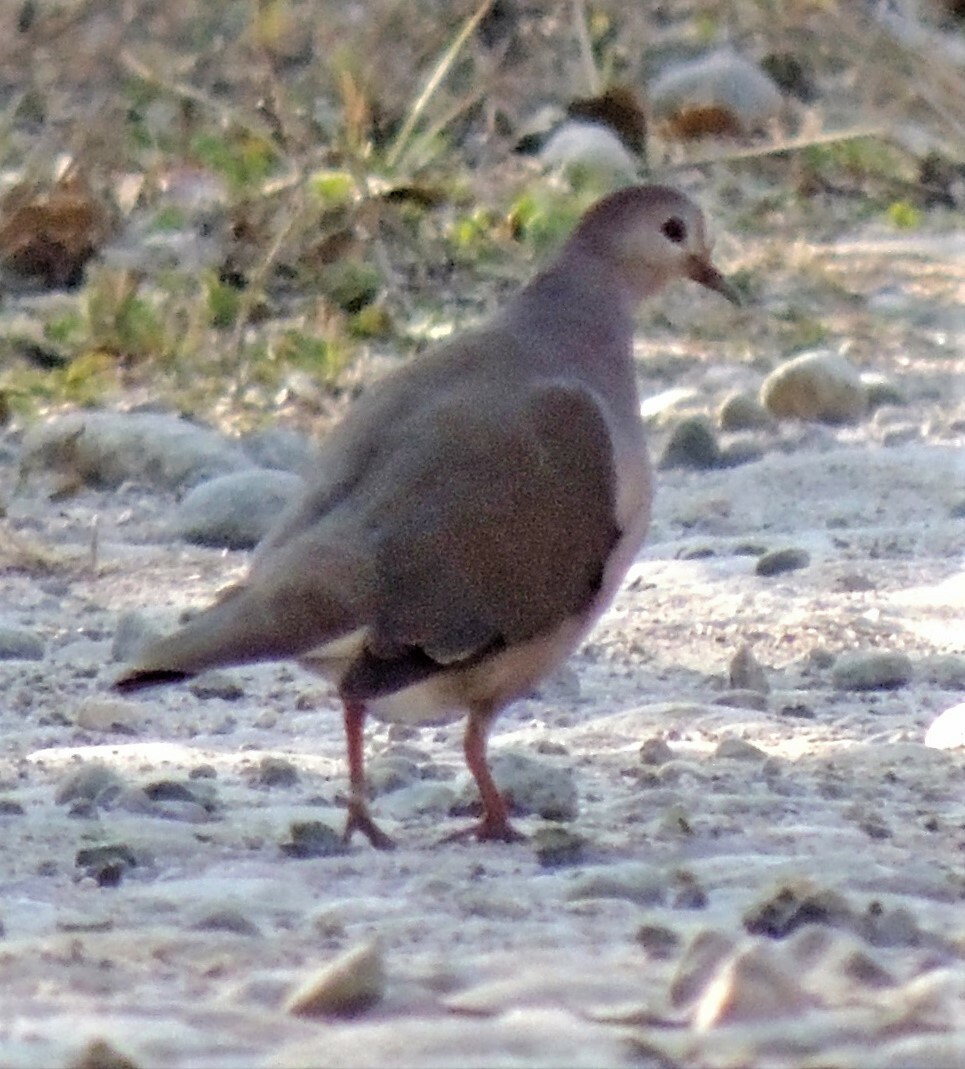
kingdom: Animalia
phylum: Chordata
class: Aves
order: Columbiformes
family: Columbidae
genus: Leptotila
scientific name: Leptotila megalura
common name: Yungas dove
